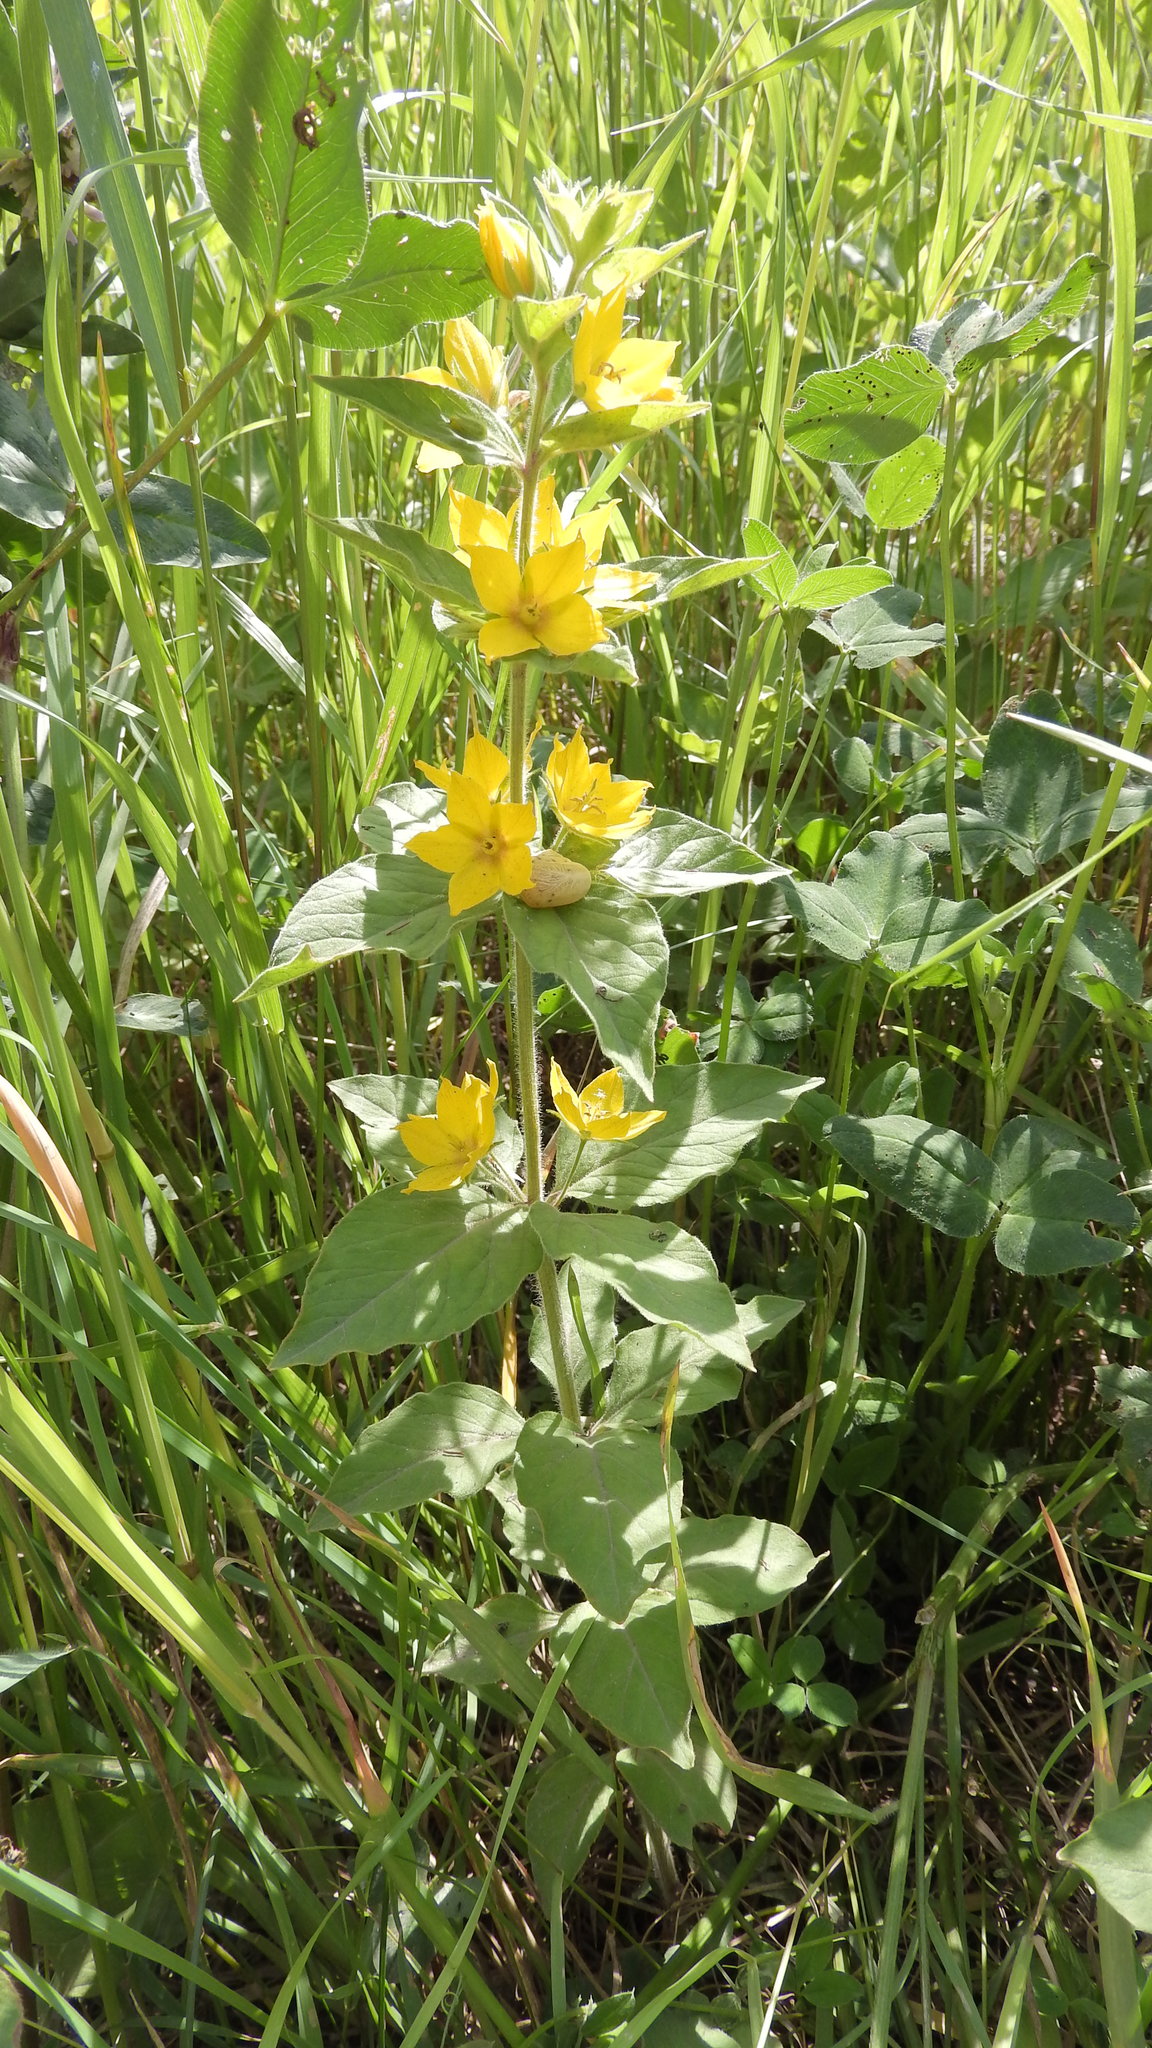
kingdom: Plantae
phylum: Tracheophyta
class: Magnoliopsida
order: Ericales
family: Primulaceae
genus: Lysimachia
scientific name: Lysimachia punctata
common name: Dotted loosestrife
